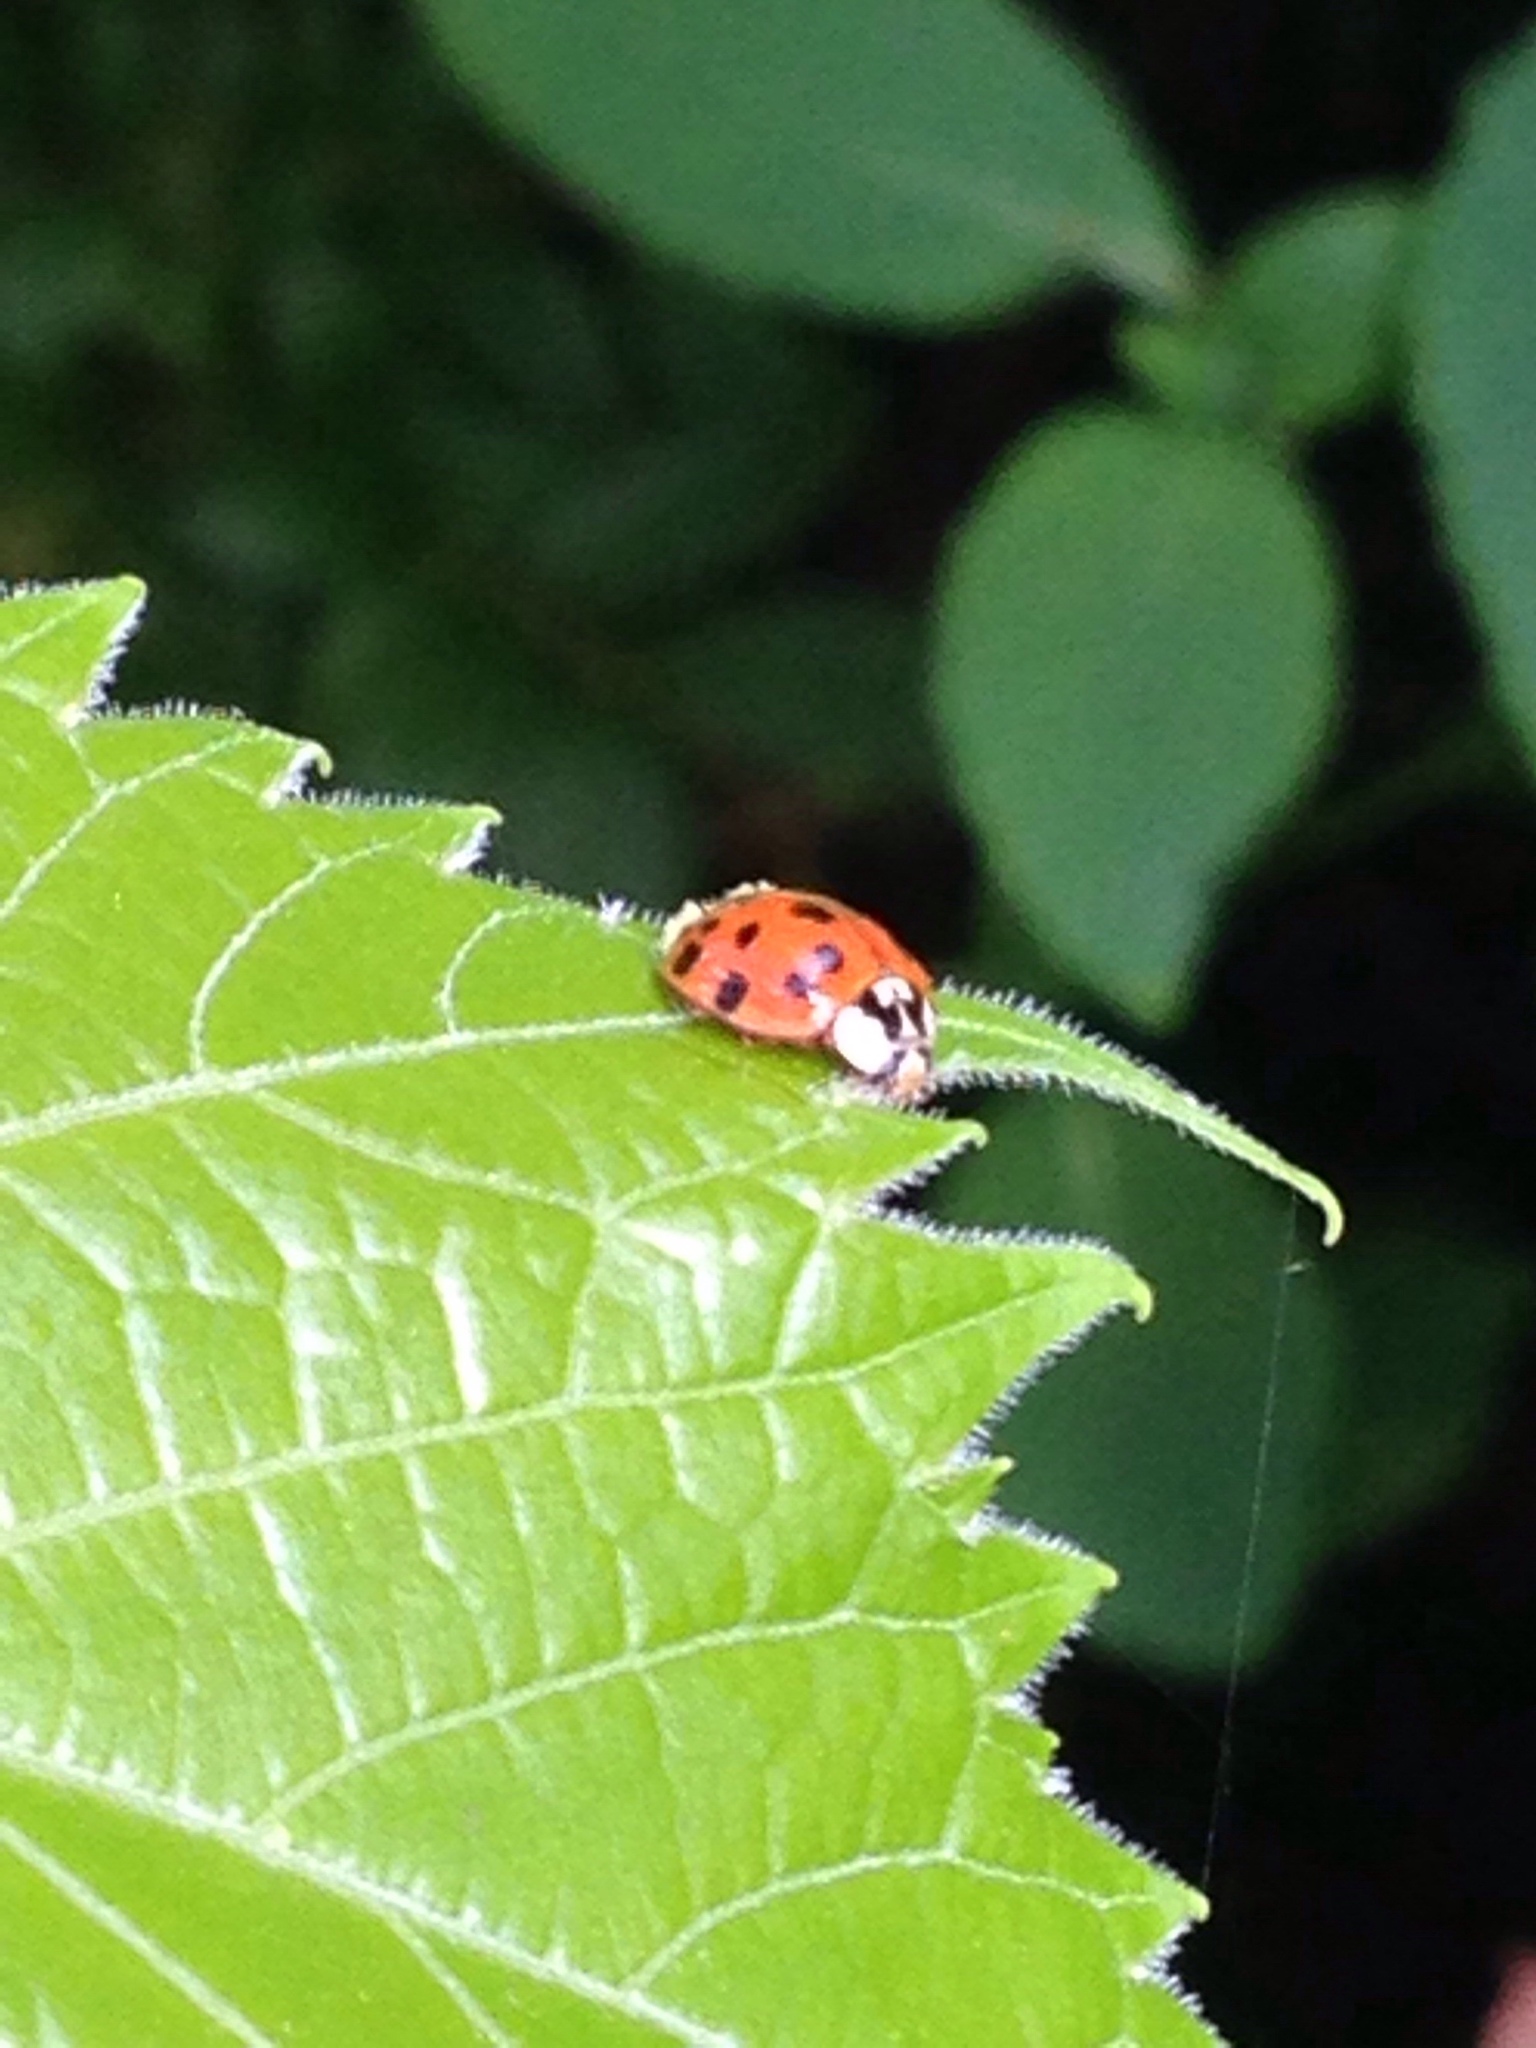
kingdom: Animalia
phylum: Arthropoda
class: Insecta
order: Coleoptera
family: Coccinellidae
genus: Harmonia
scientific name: Harmonia axyridis
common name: Harlequin ladybird
